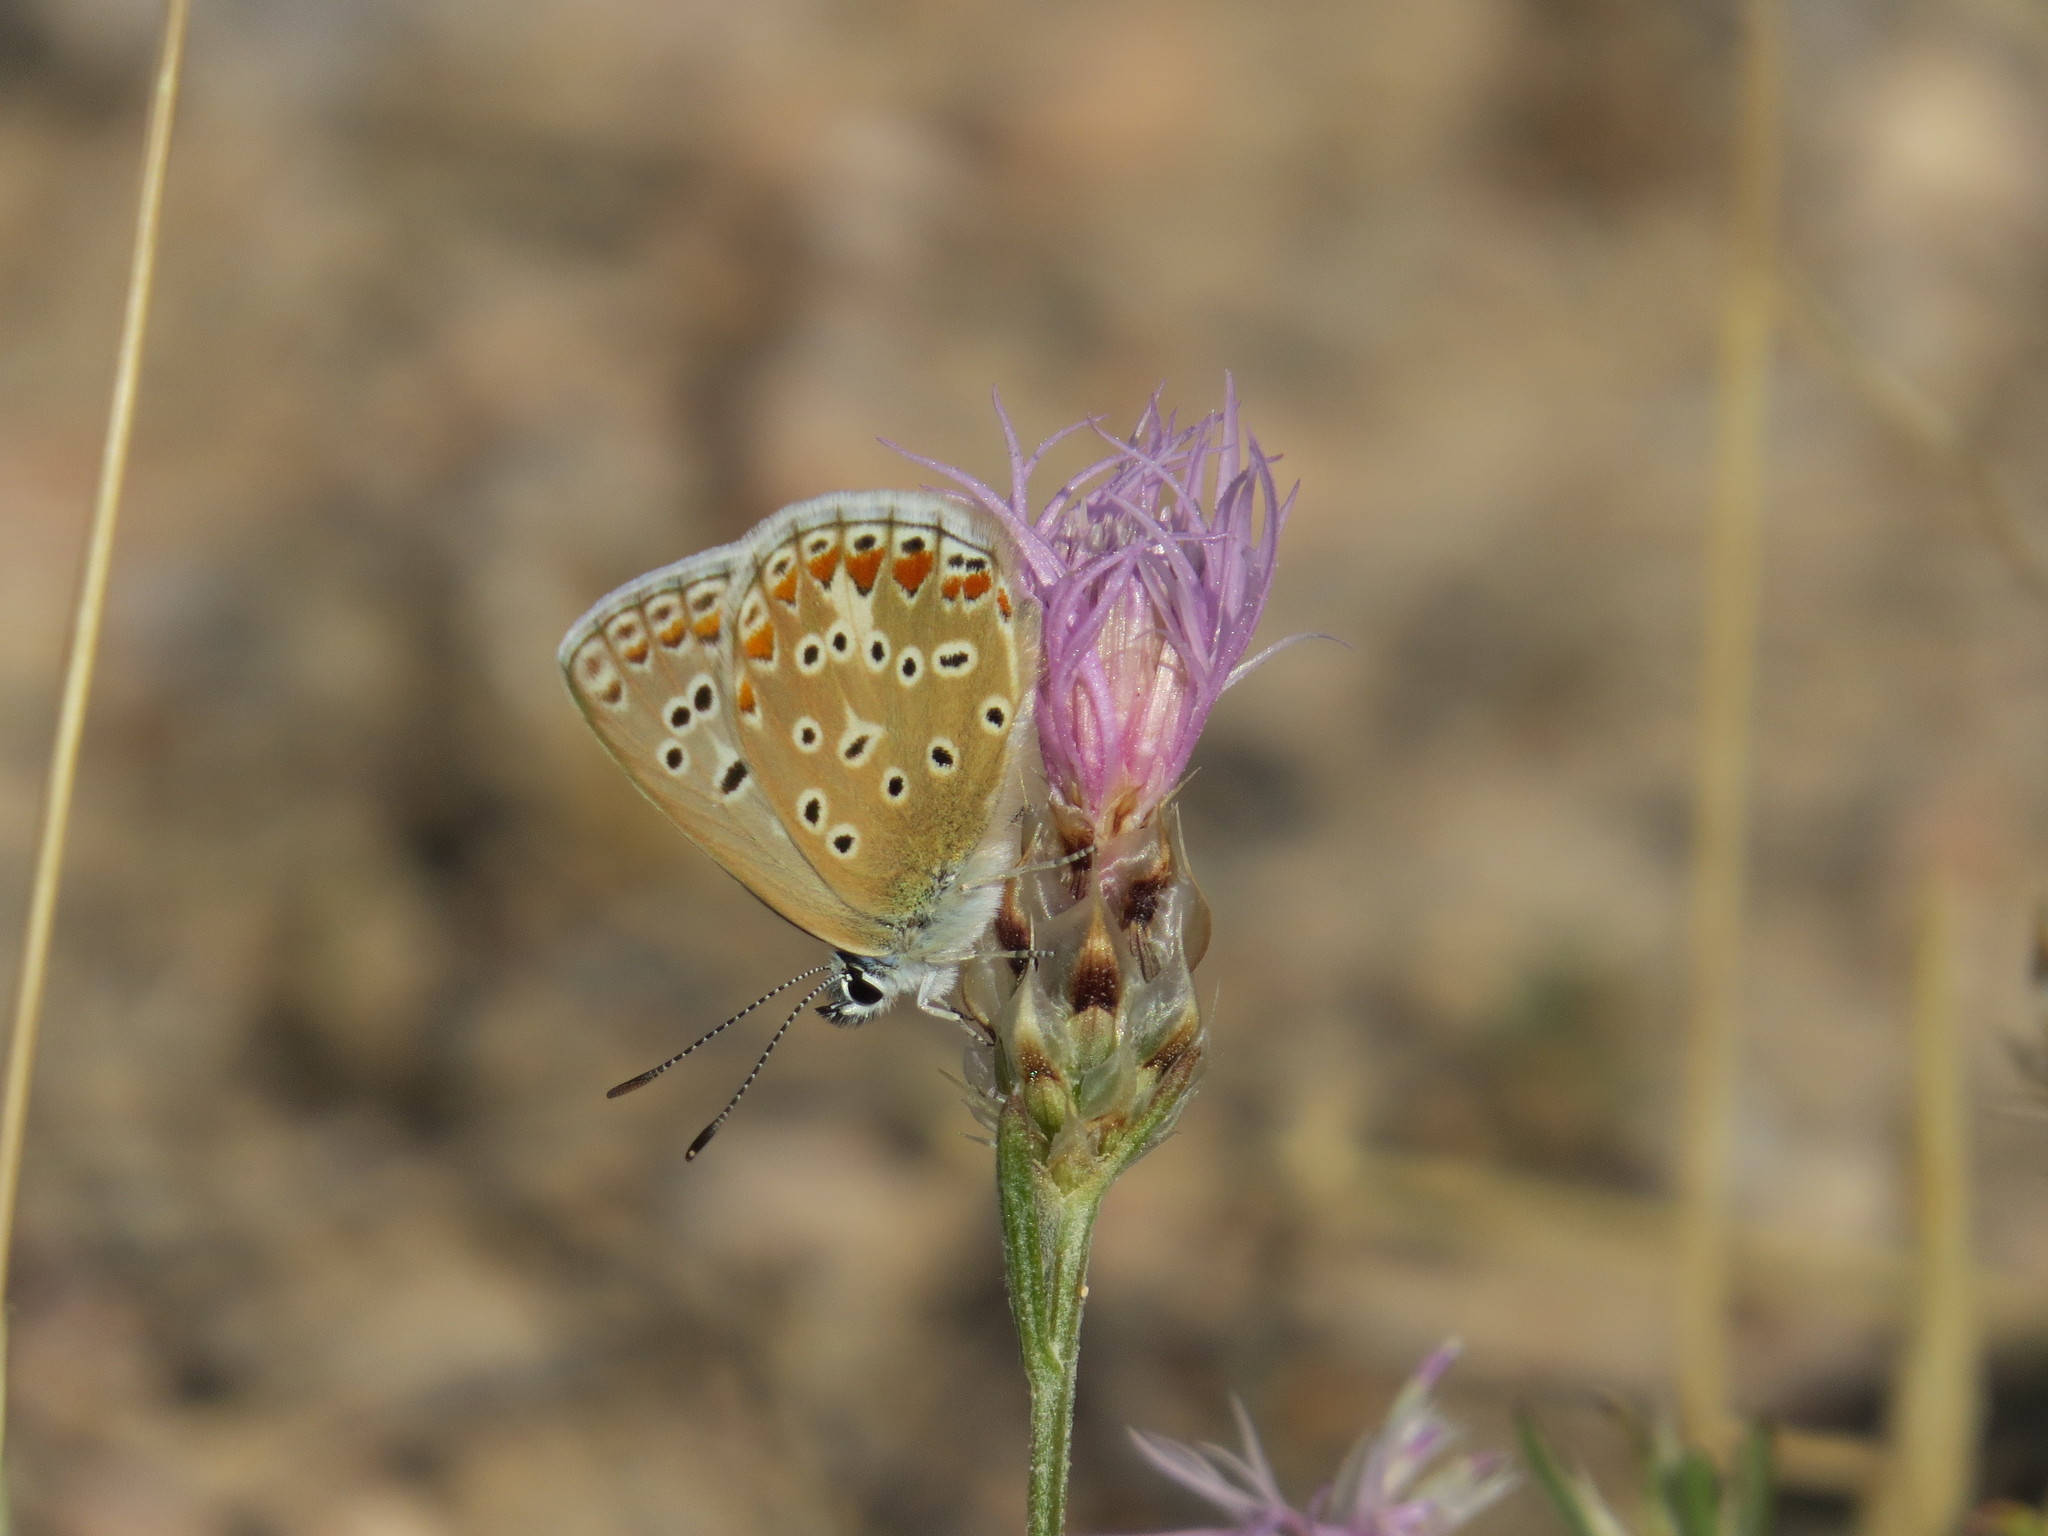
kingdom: Animalia
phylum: Arthropoda
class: Insecta
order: Lepidoptera
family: Lycaenidae
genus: Polyommatus
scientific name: Polyommatus icarus
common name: Common blue
